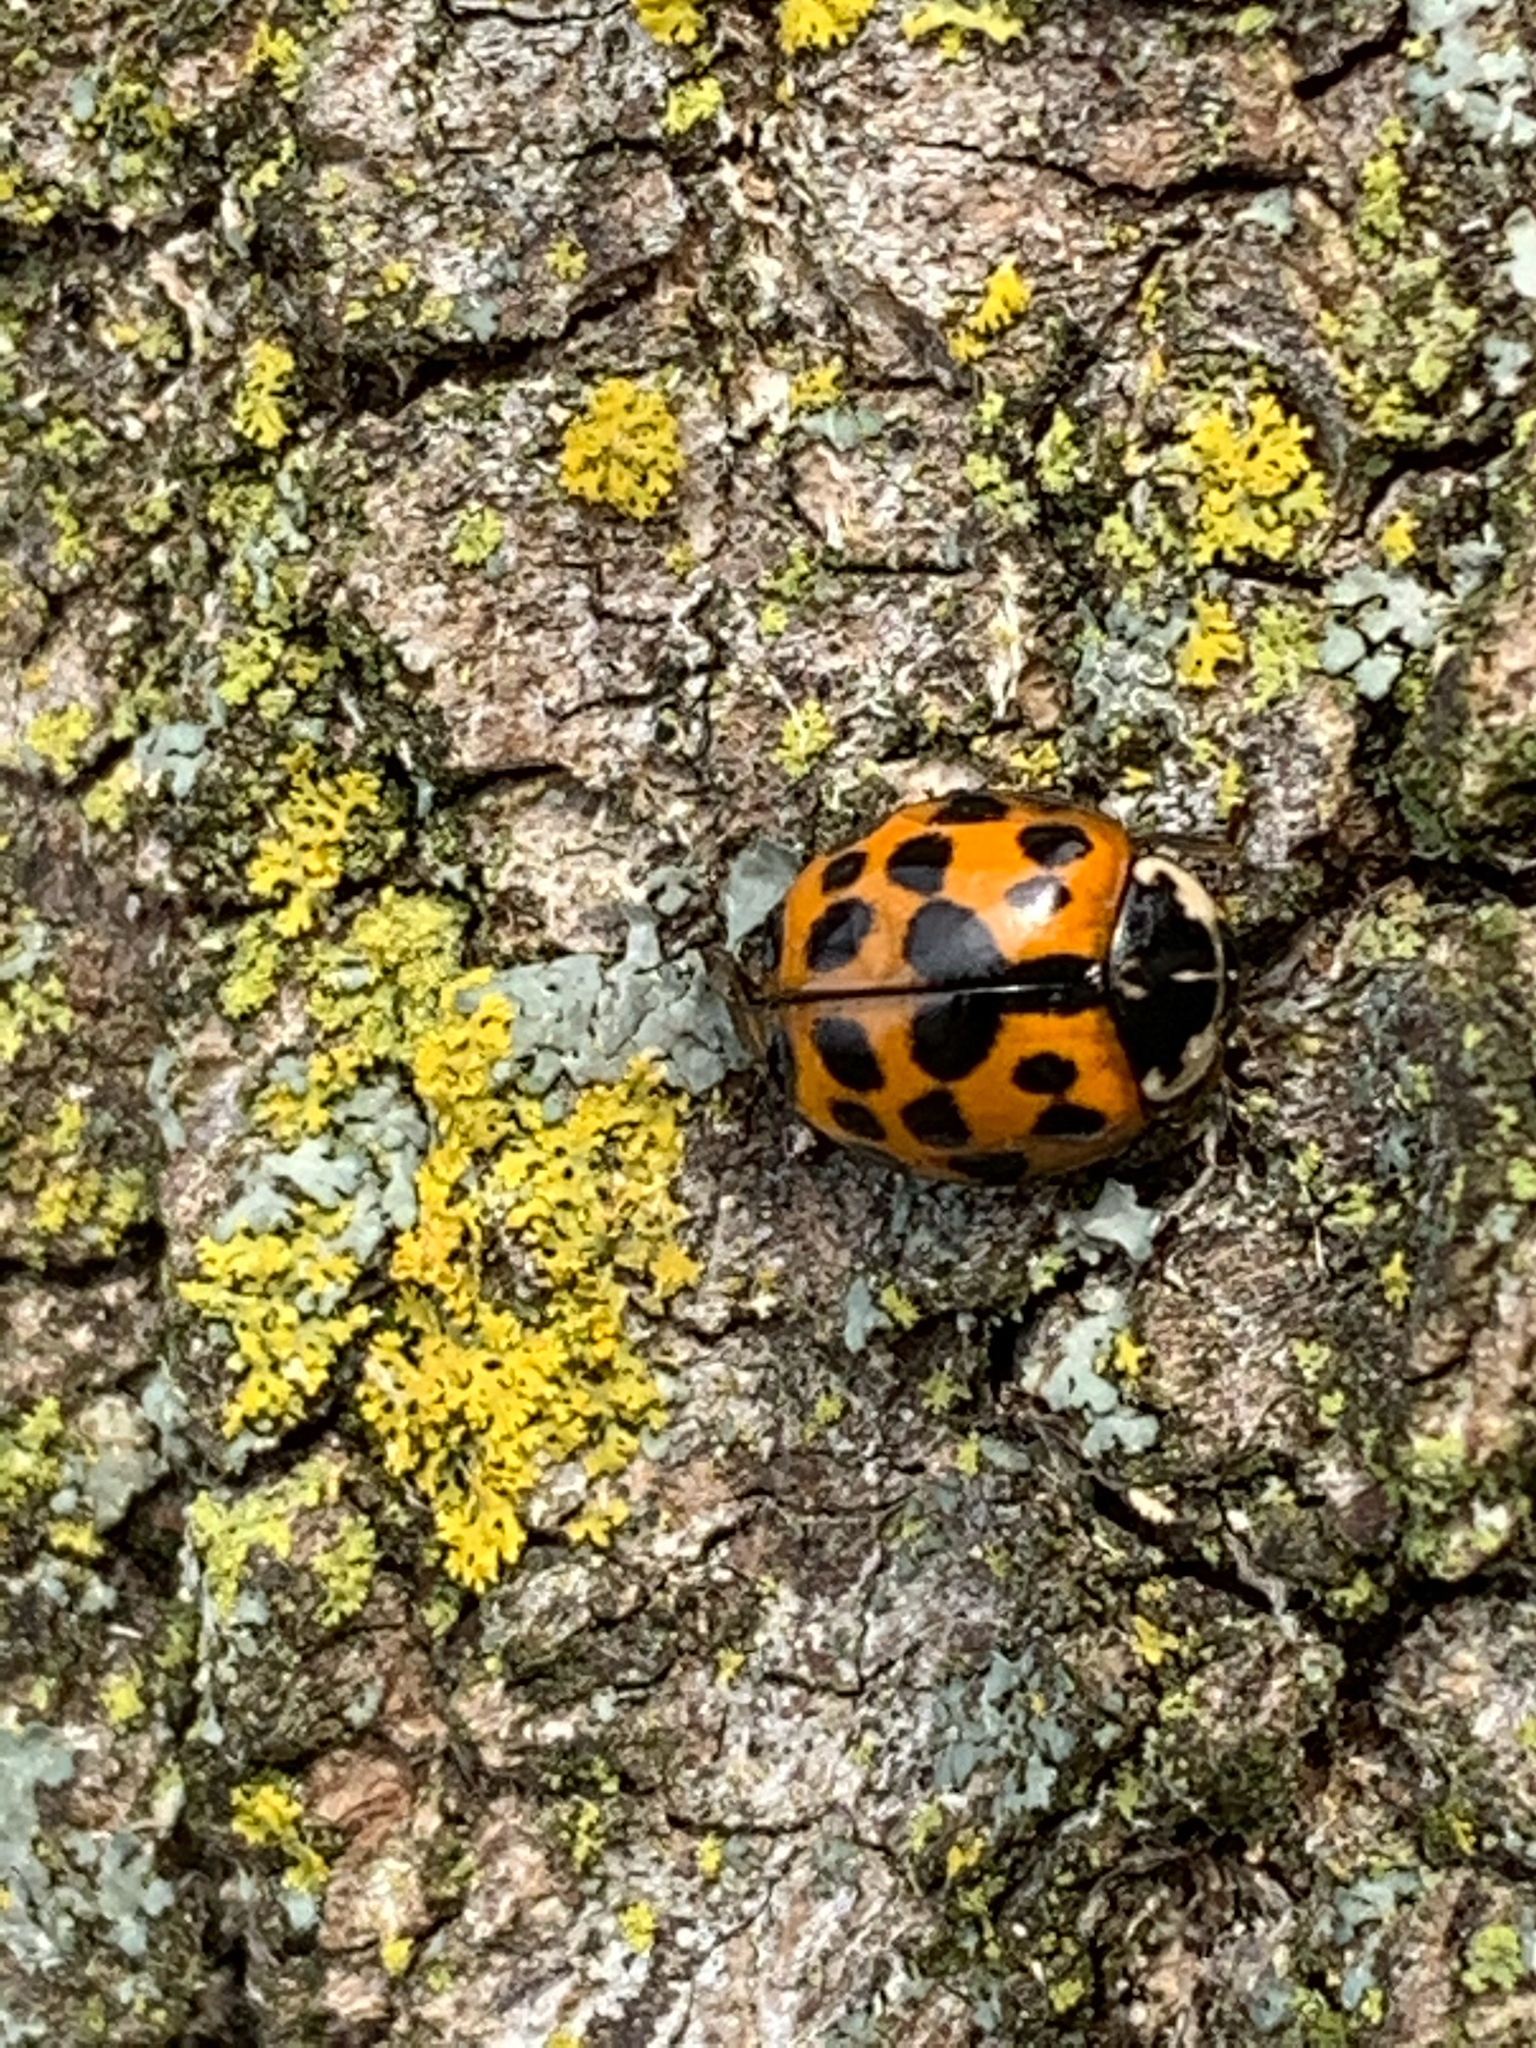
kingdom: Animalia
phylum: Arthropoda
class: Insecta
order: Coleoptera
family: Coccinellidae
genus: Harmonia
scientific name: Harmonia axyridis
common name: Harlequin ladybird
